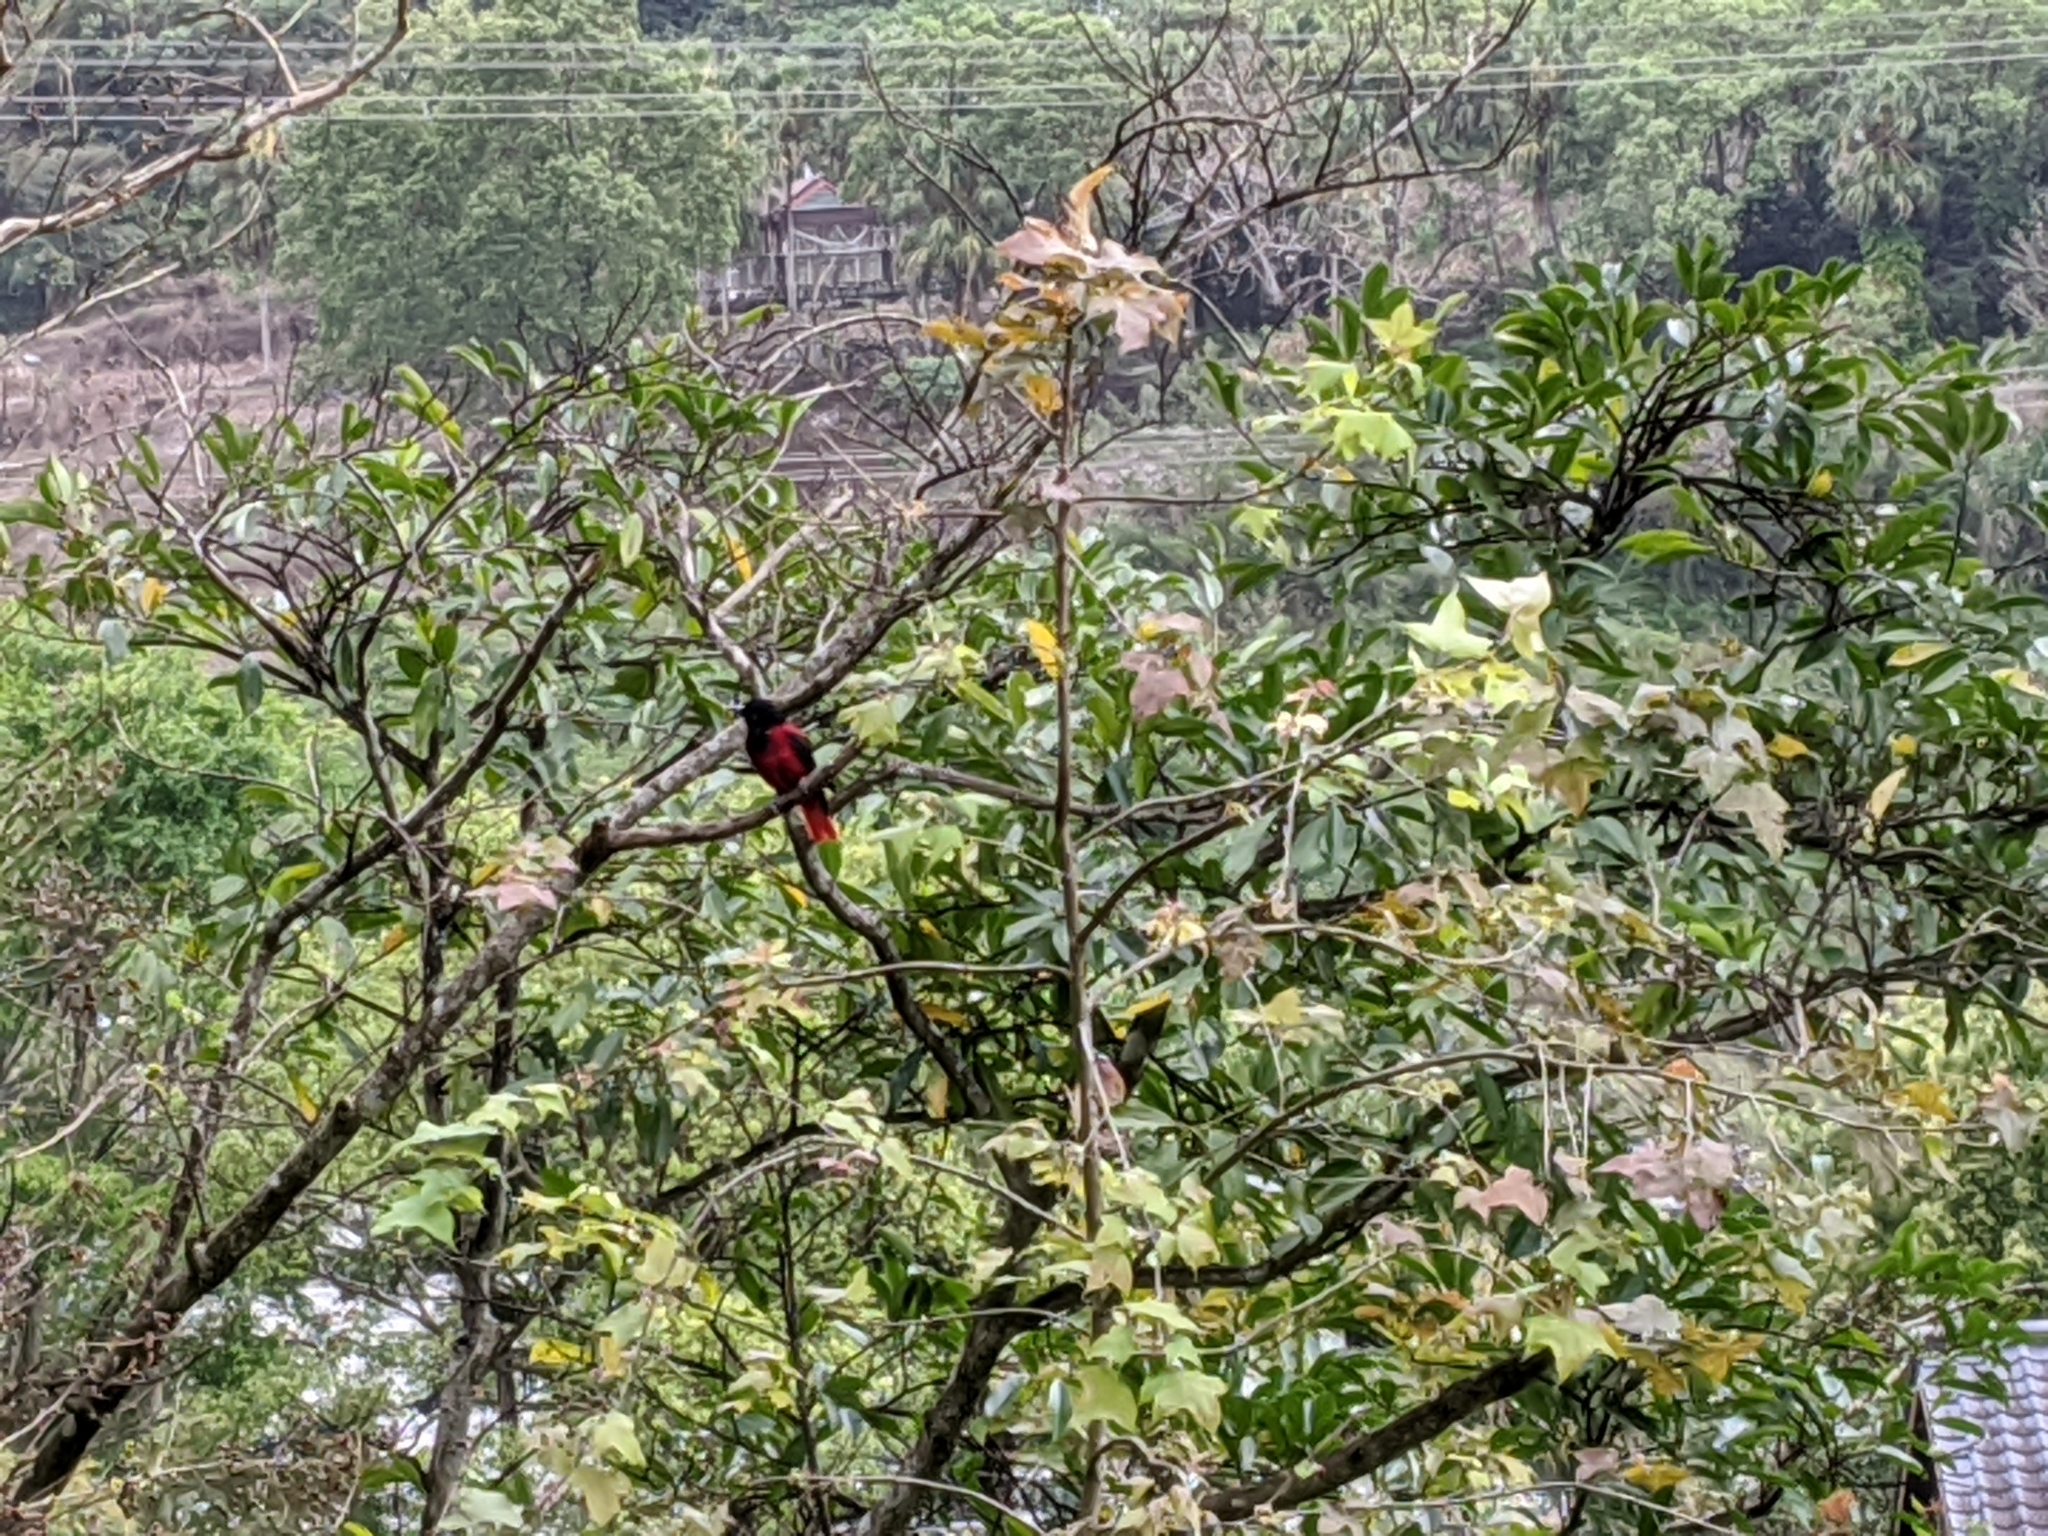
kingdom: Animalia
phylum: Chordata
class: Aves
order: Passeriformes
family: Oriolidae
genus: Oriolus
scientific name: Oriolus traillii
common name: Maroon oriole
